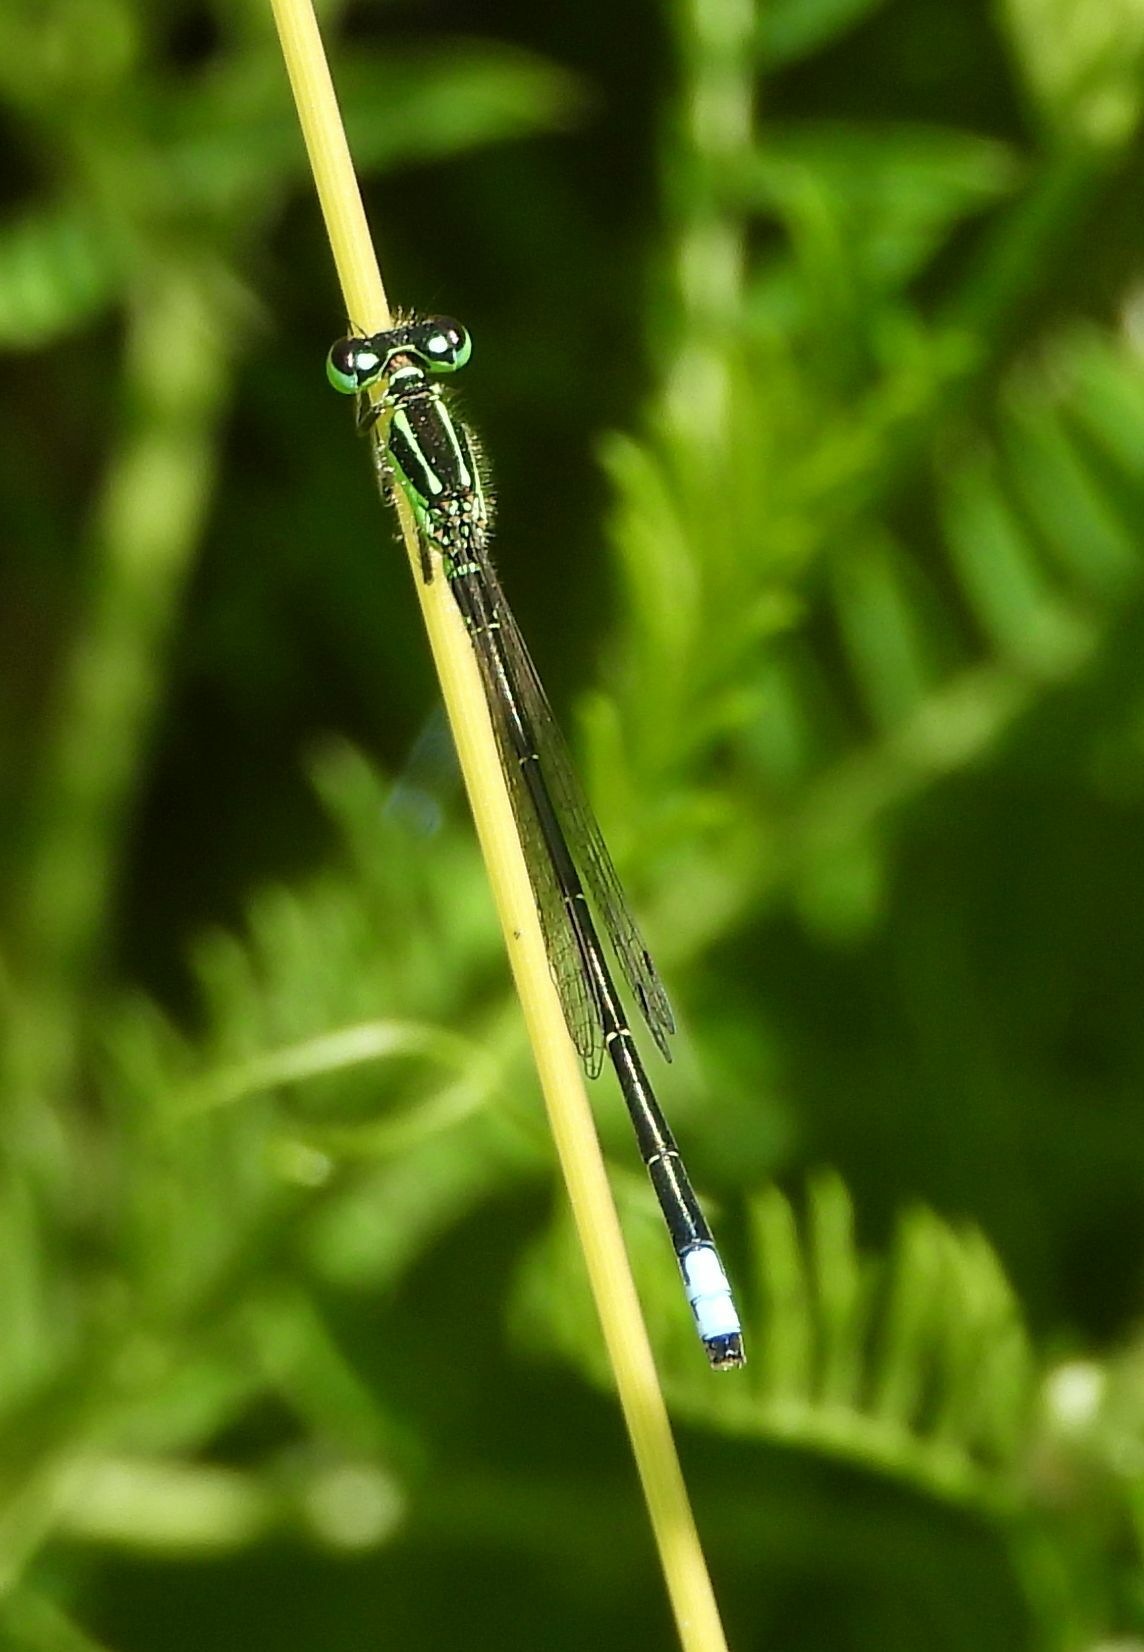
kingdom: Animalia
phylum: Arthropoda
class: Insecta
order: Odonata
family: Coenagrionidae
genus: Ischnura
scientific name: Ischnura verticalis
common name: Eastern forktail
